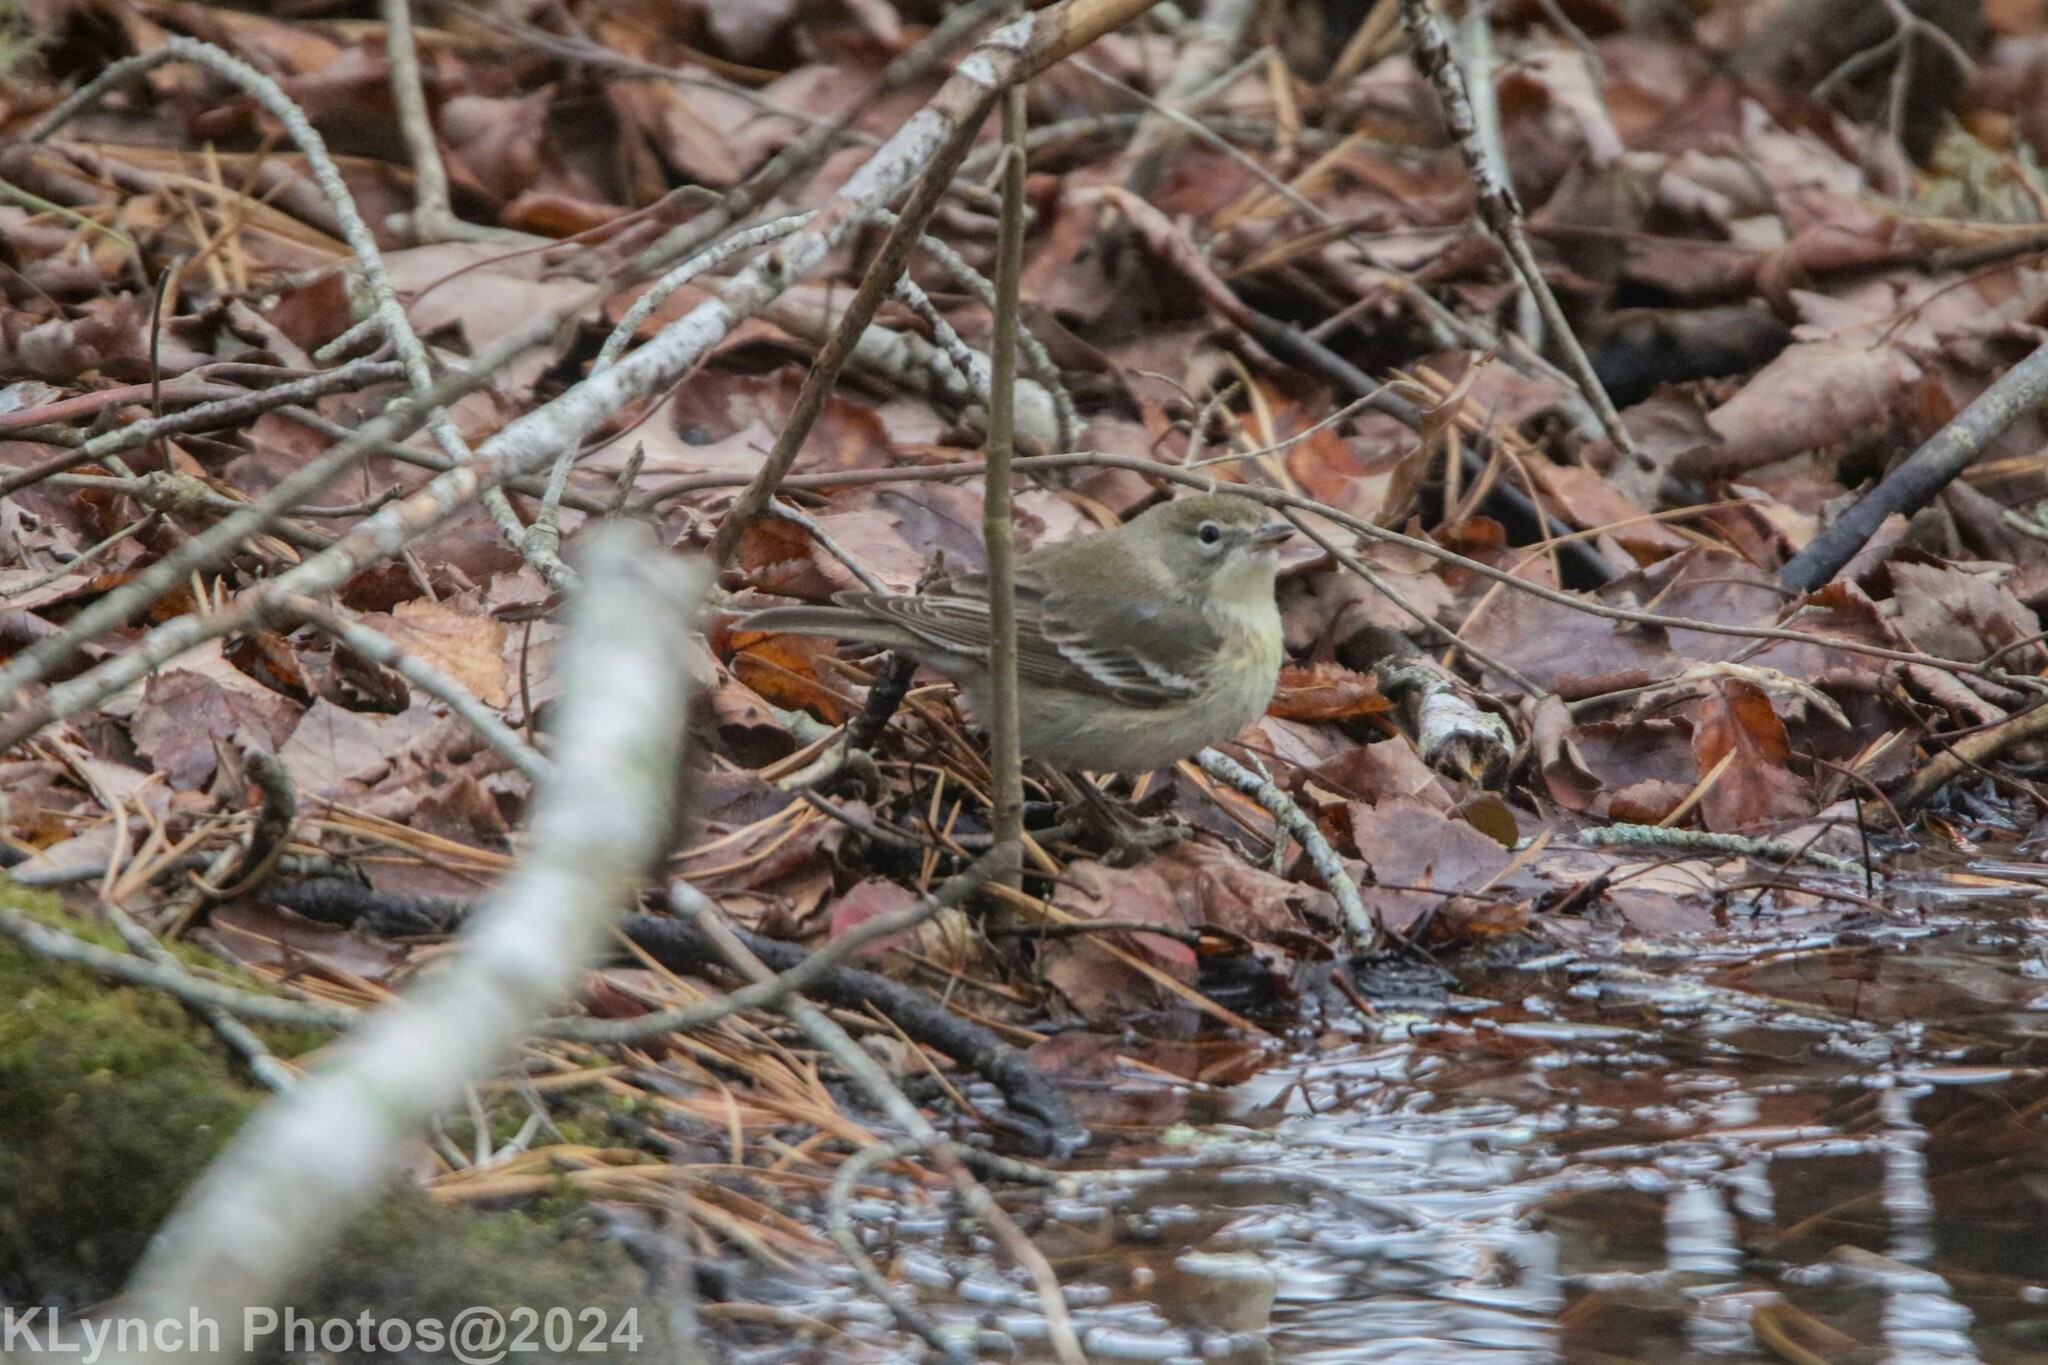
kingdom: Animalia
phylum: Chordata
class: Aves
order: Passeriformes
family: Parulidae
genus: Setophaga
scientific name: Setophaga pinus
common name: Pine warbler
